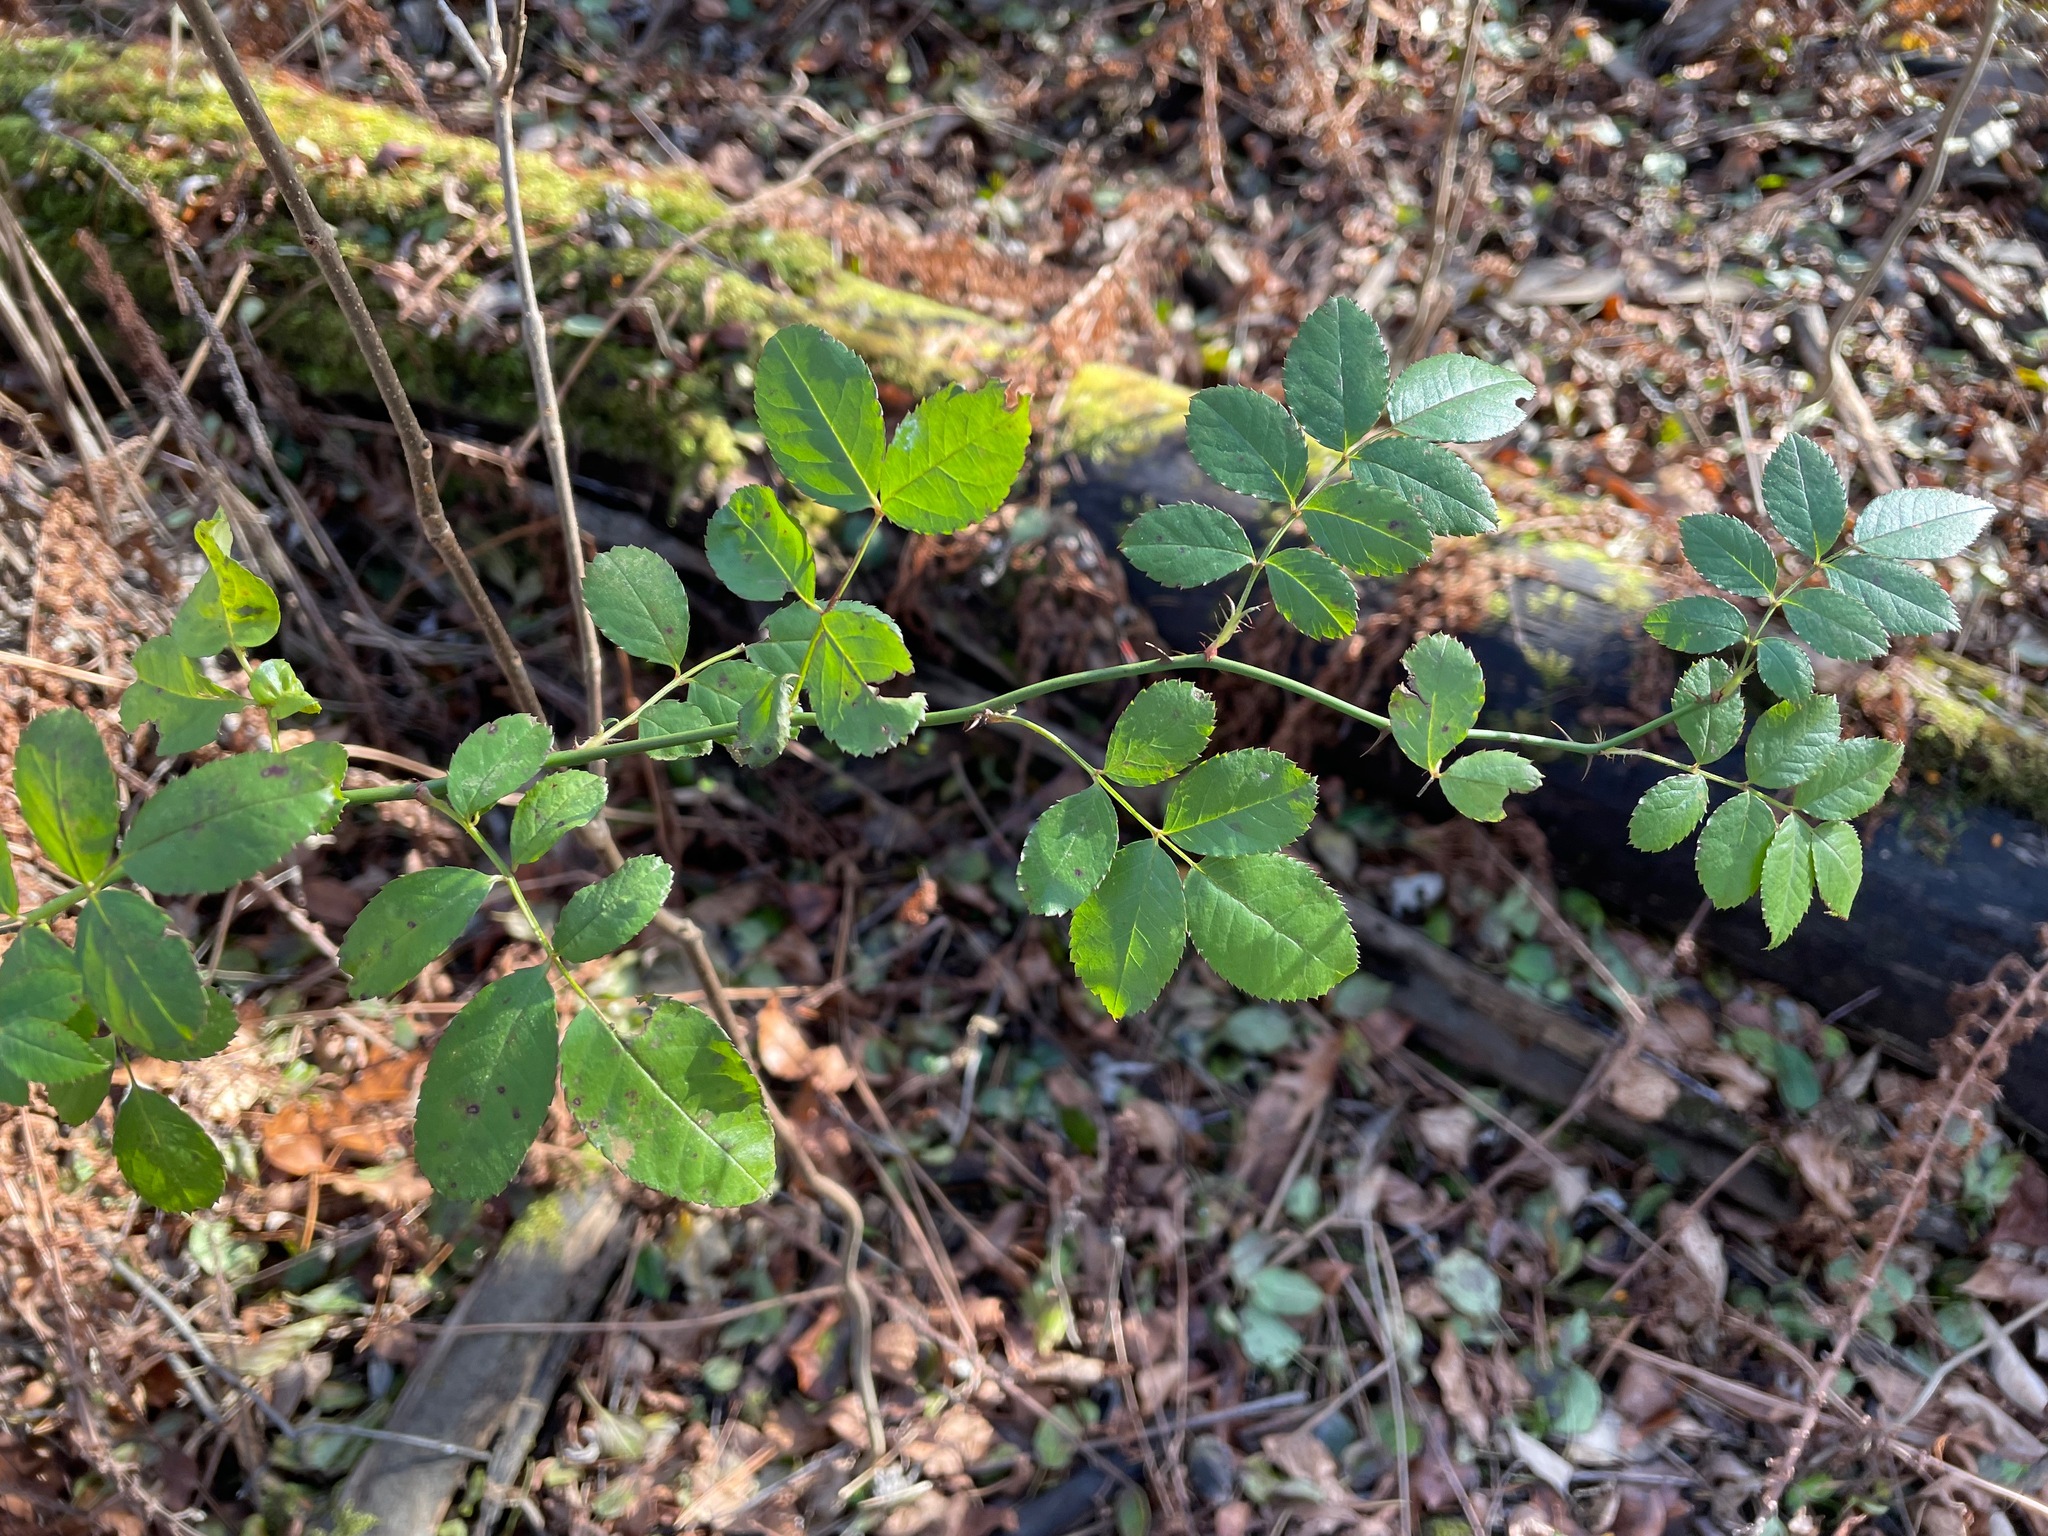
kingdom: Plantae
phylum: Tracheophyta
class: Magnoliopsida
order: Rosales
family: Rosaceae
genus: Rosa
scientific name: Rosa multiflora
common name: Multiflora rose
